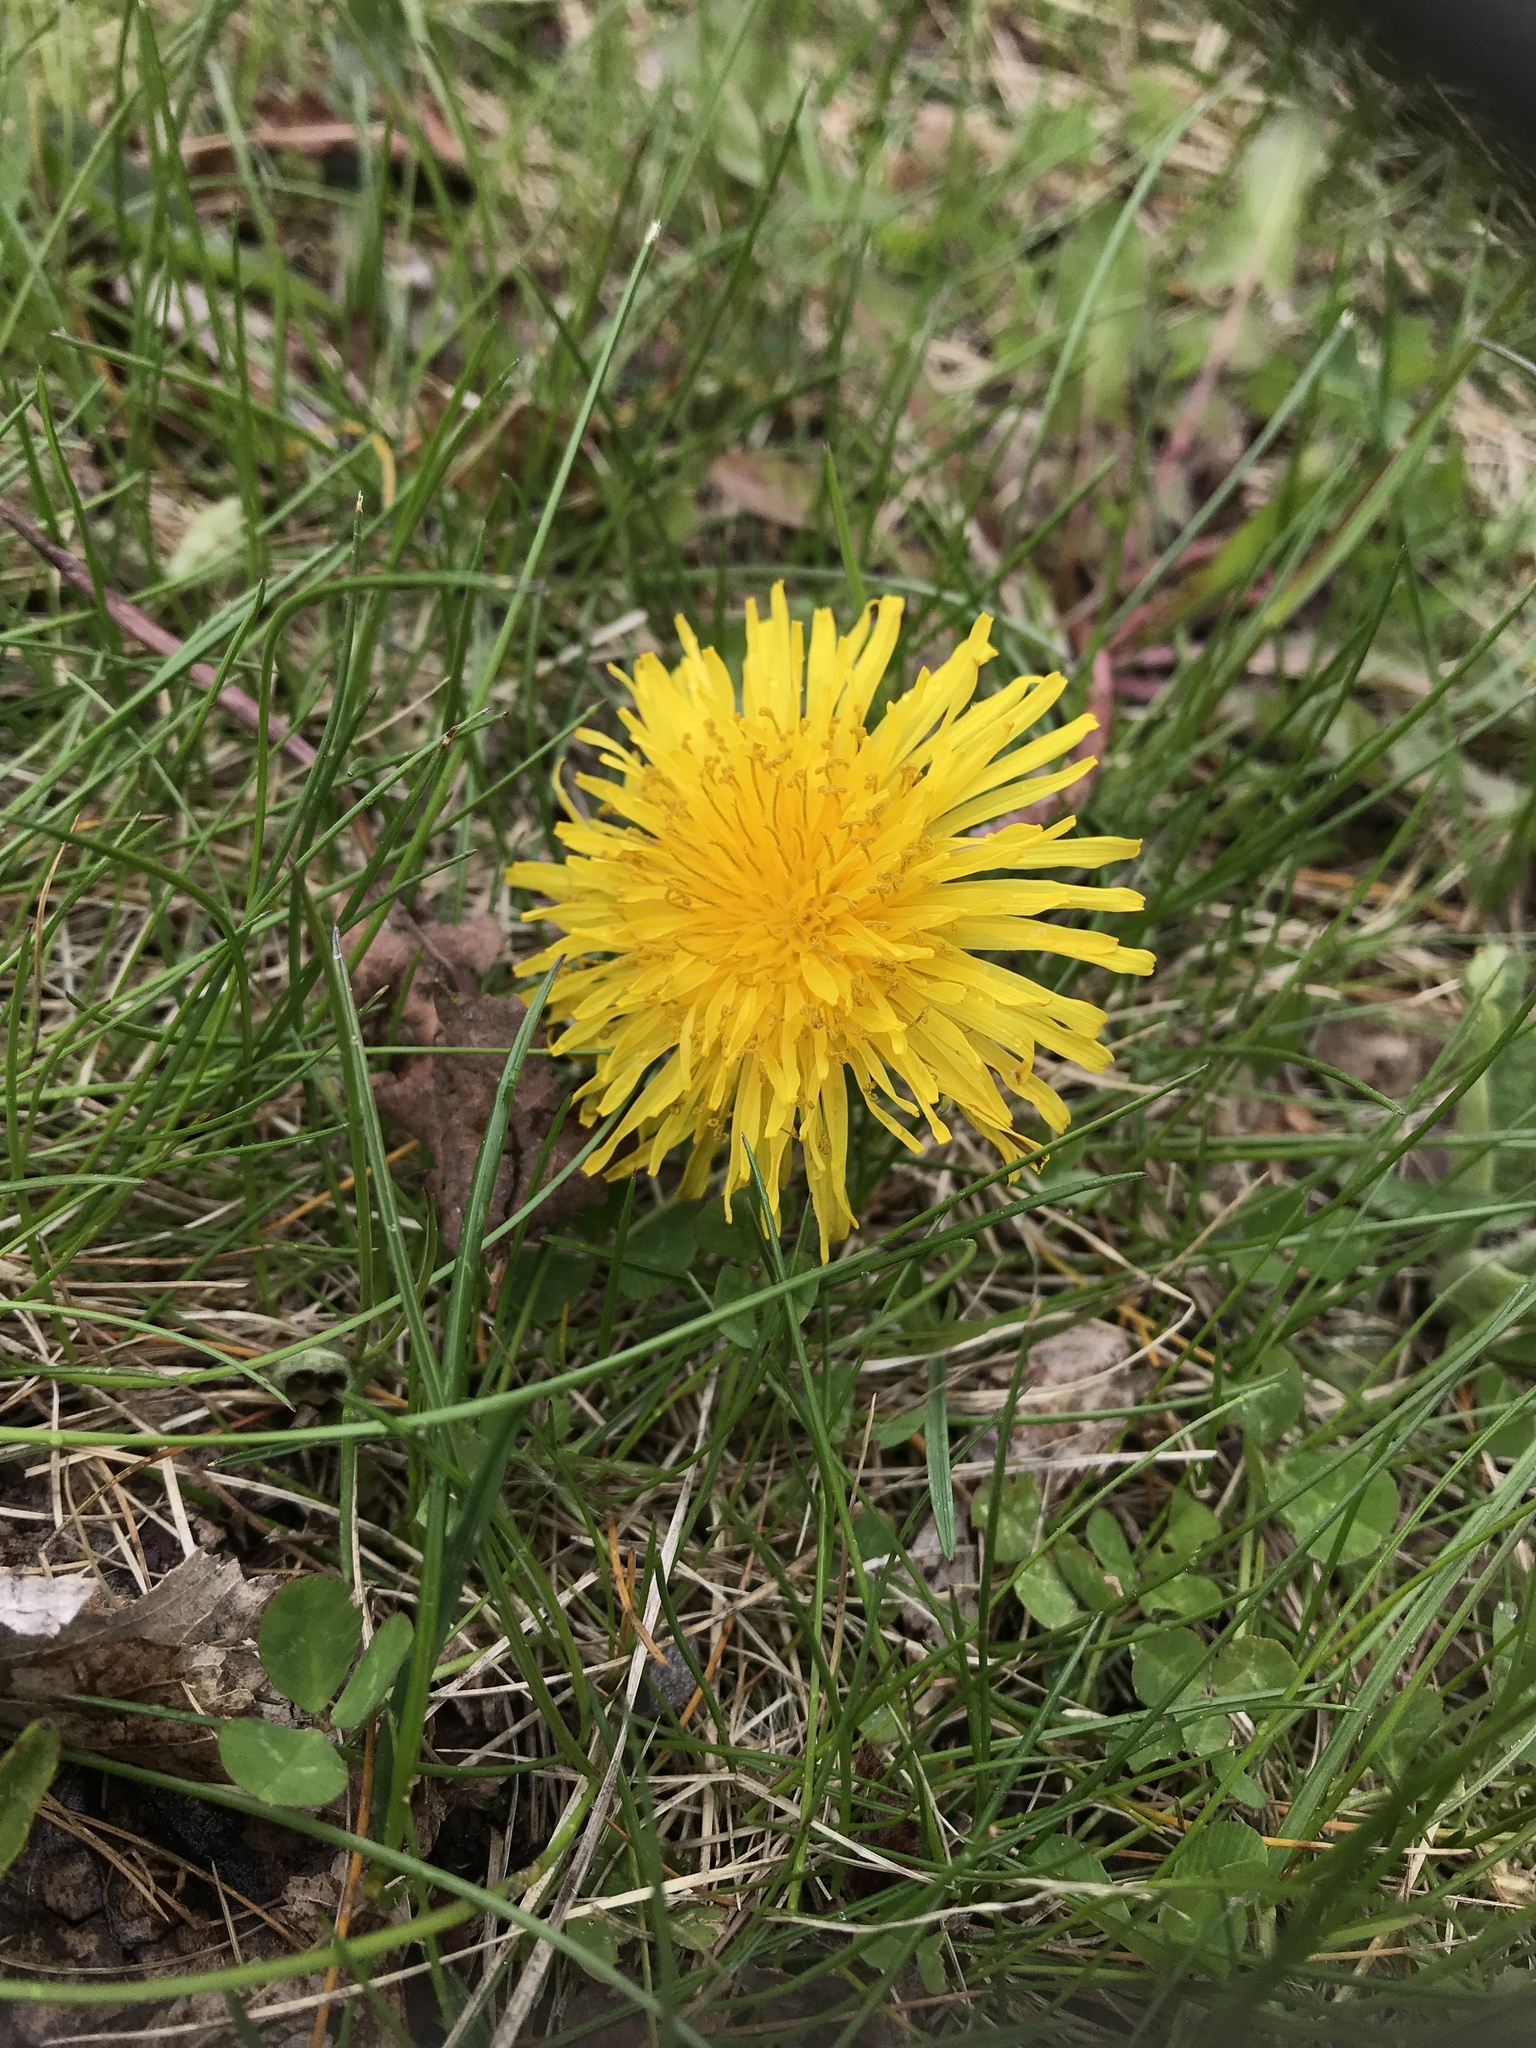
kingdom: Plantae
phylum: Tracheophyta
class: Magnoliopsida
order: Asterales
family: Asteraceae
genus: Taraxacum
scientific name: Taraxacum officinale
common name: Common dandelion
